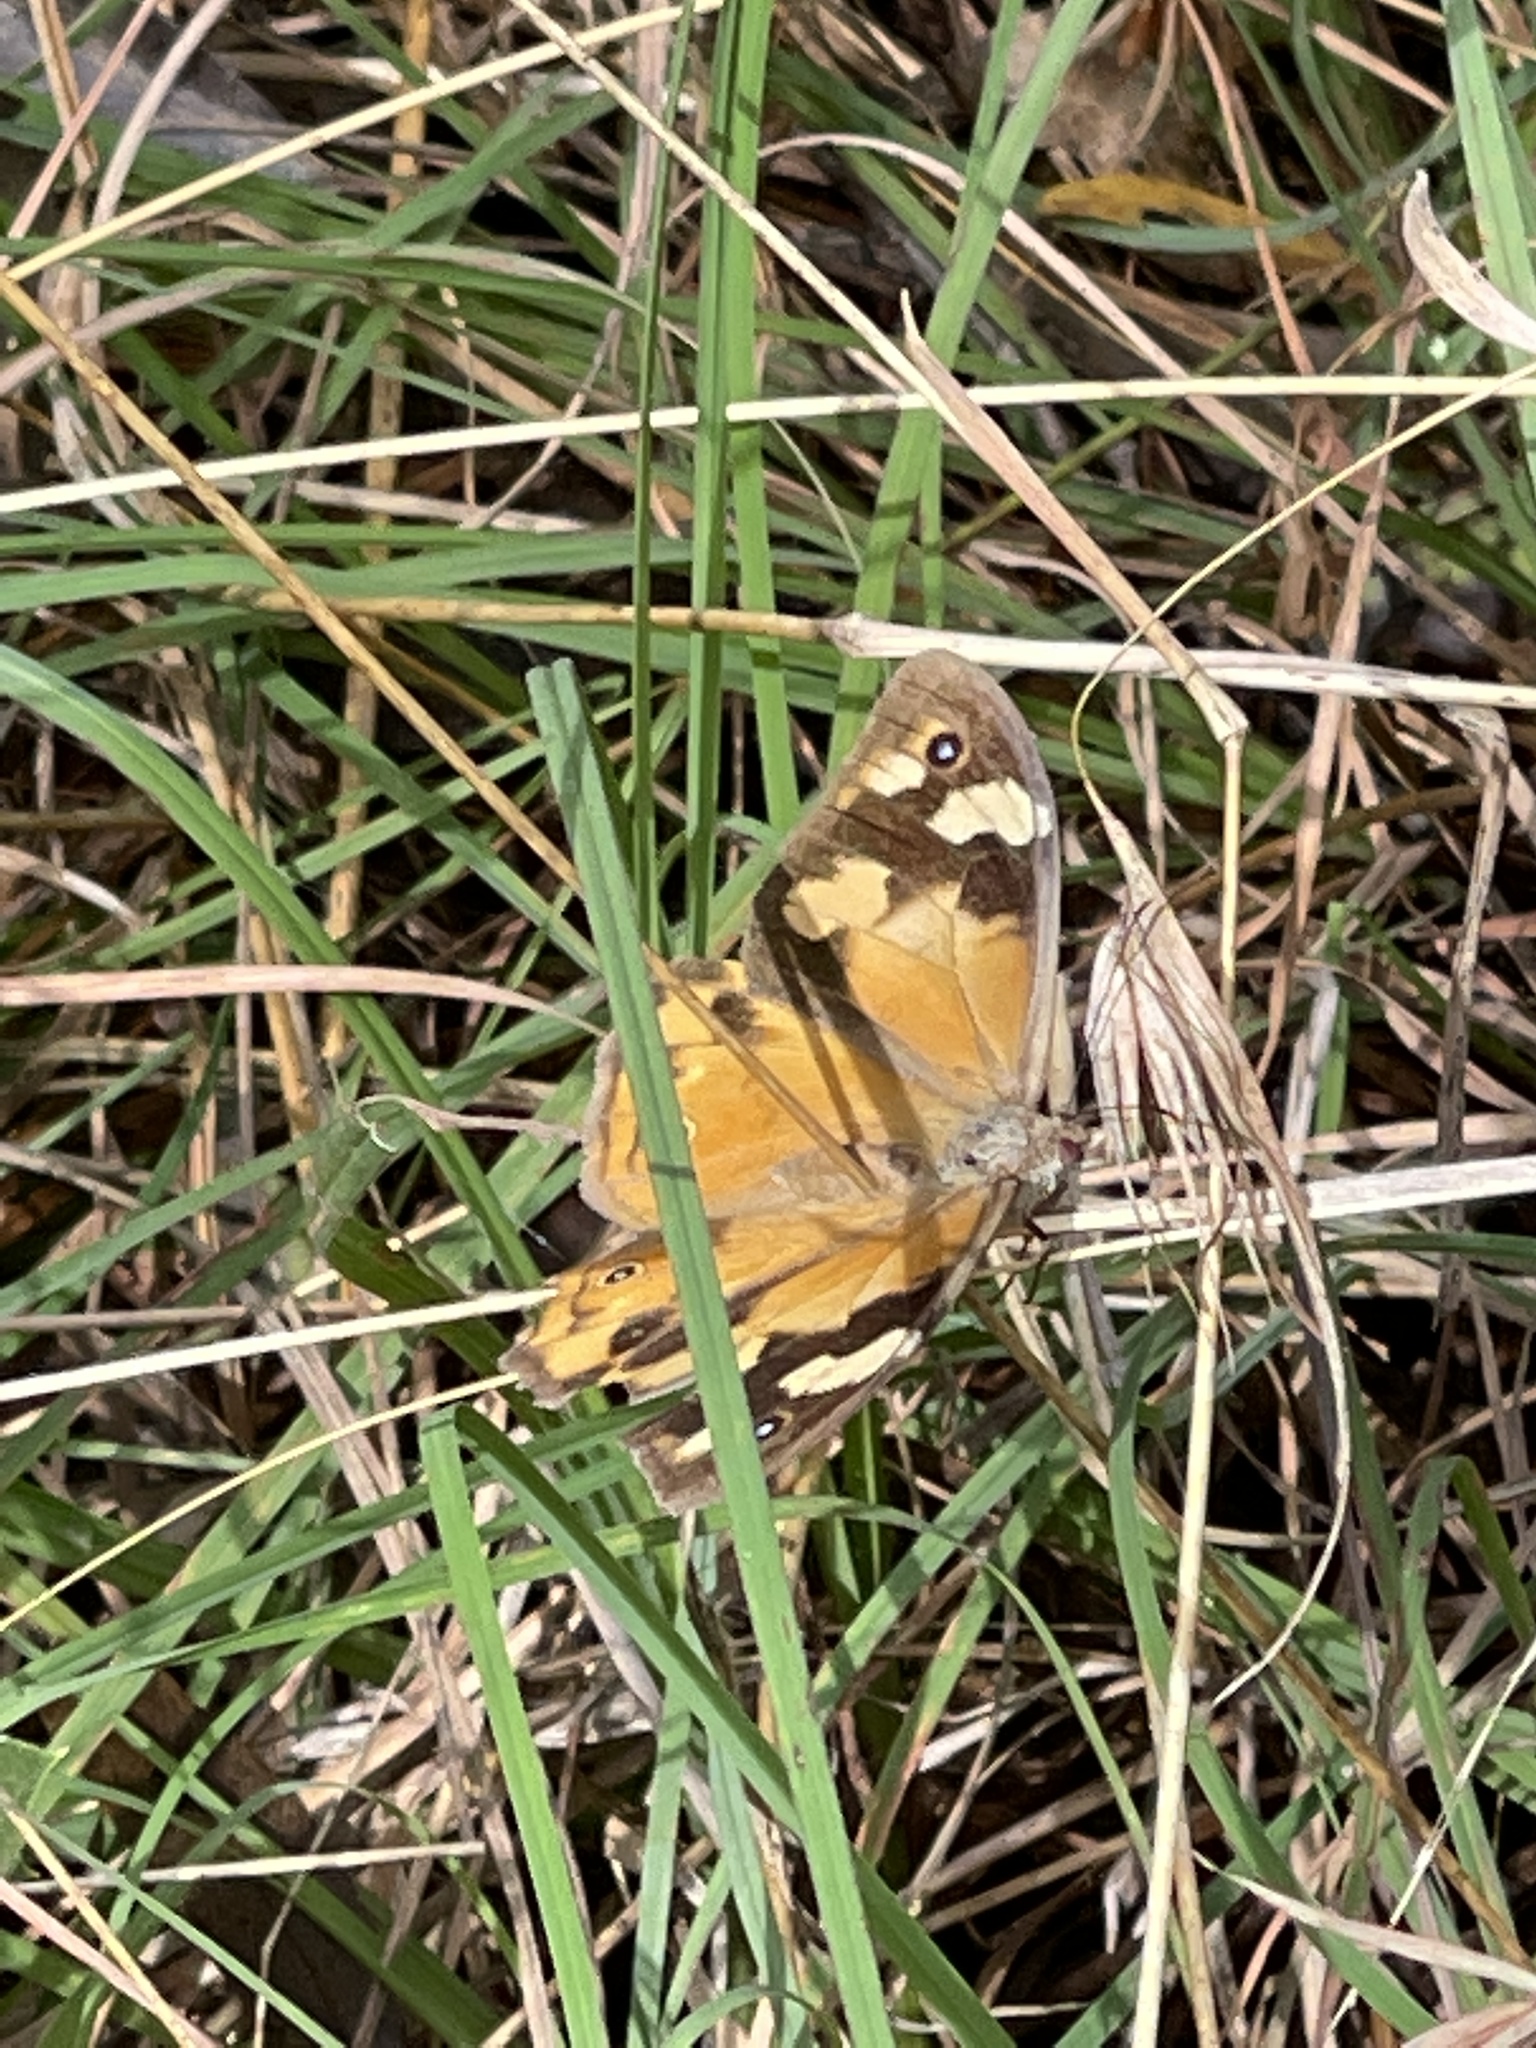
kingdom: Animalia
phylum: Arthropoda
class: Insecta
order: Lepidoptera
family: Nymphalidae
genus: Heteronympha
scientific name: Heteronympha merope
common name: Common brown
